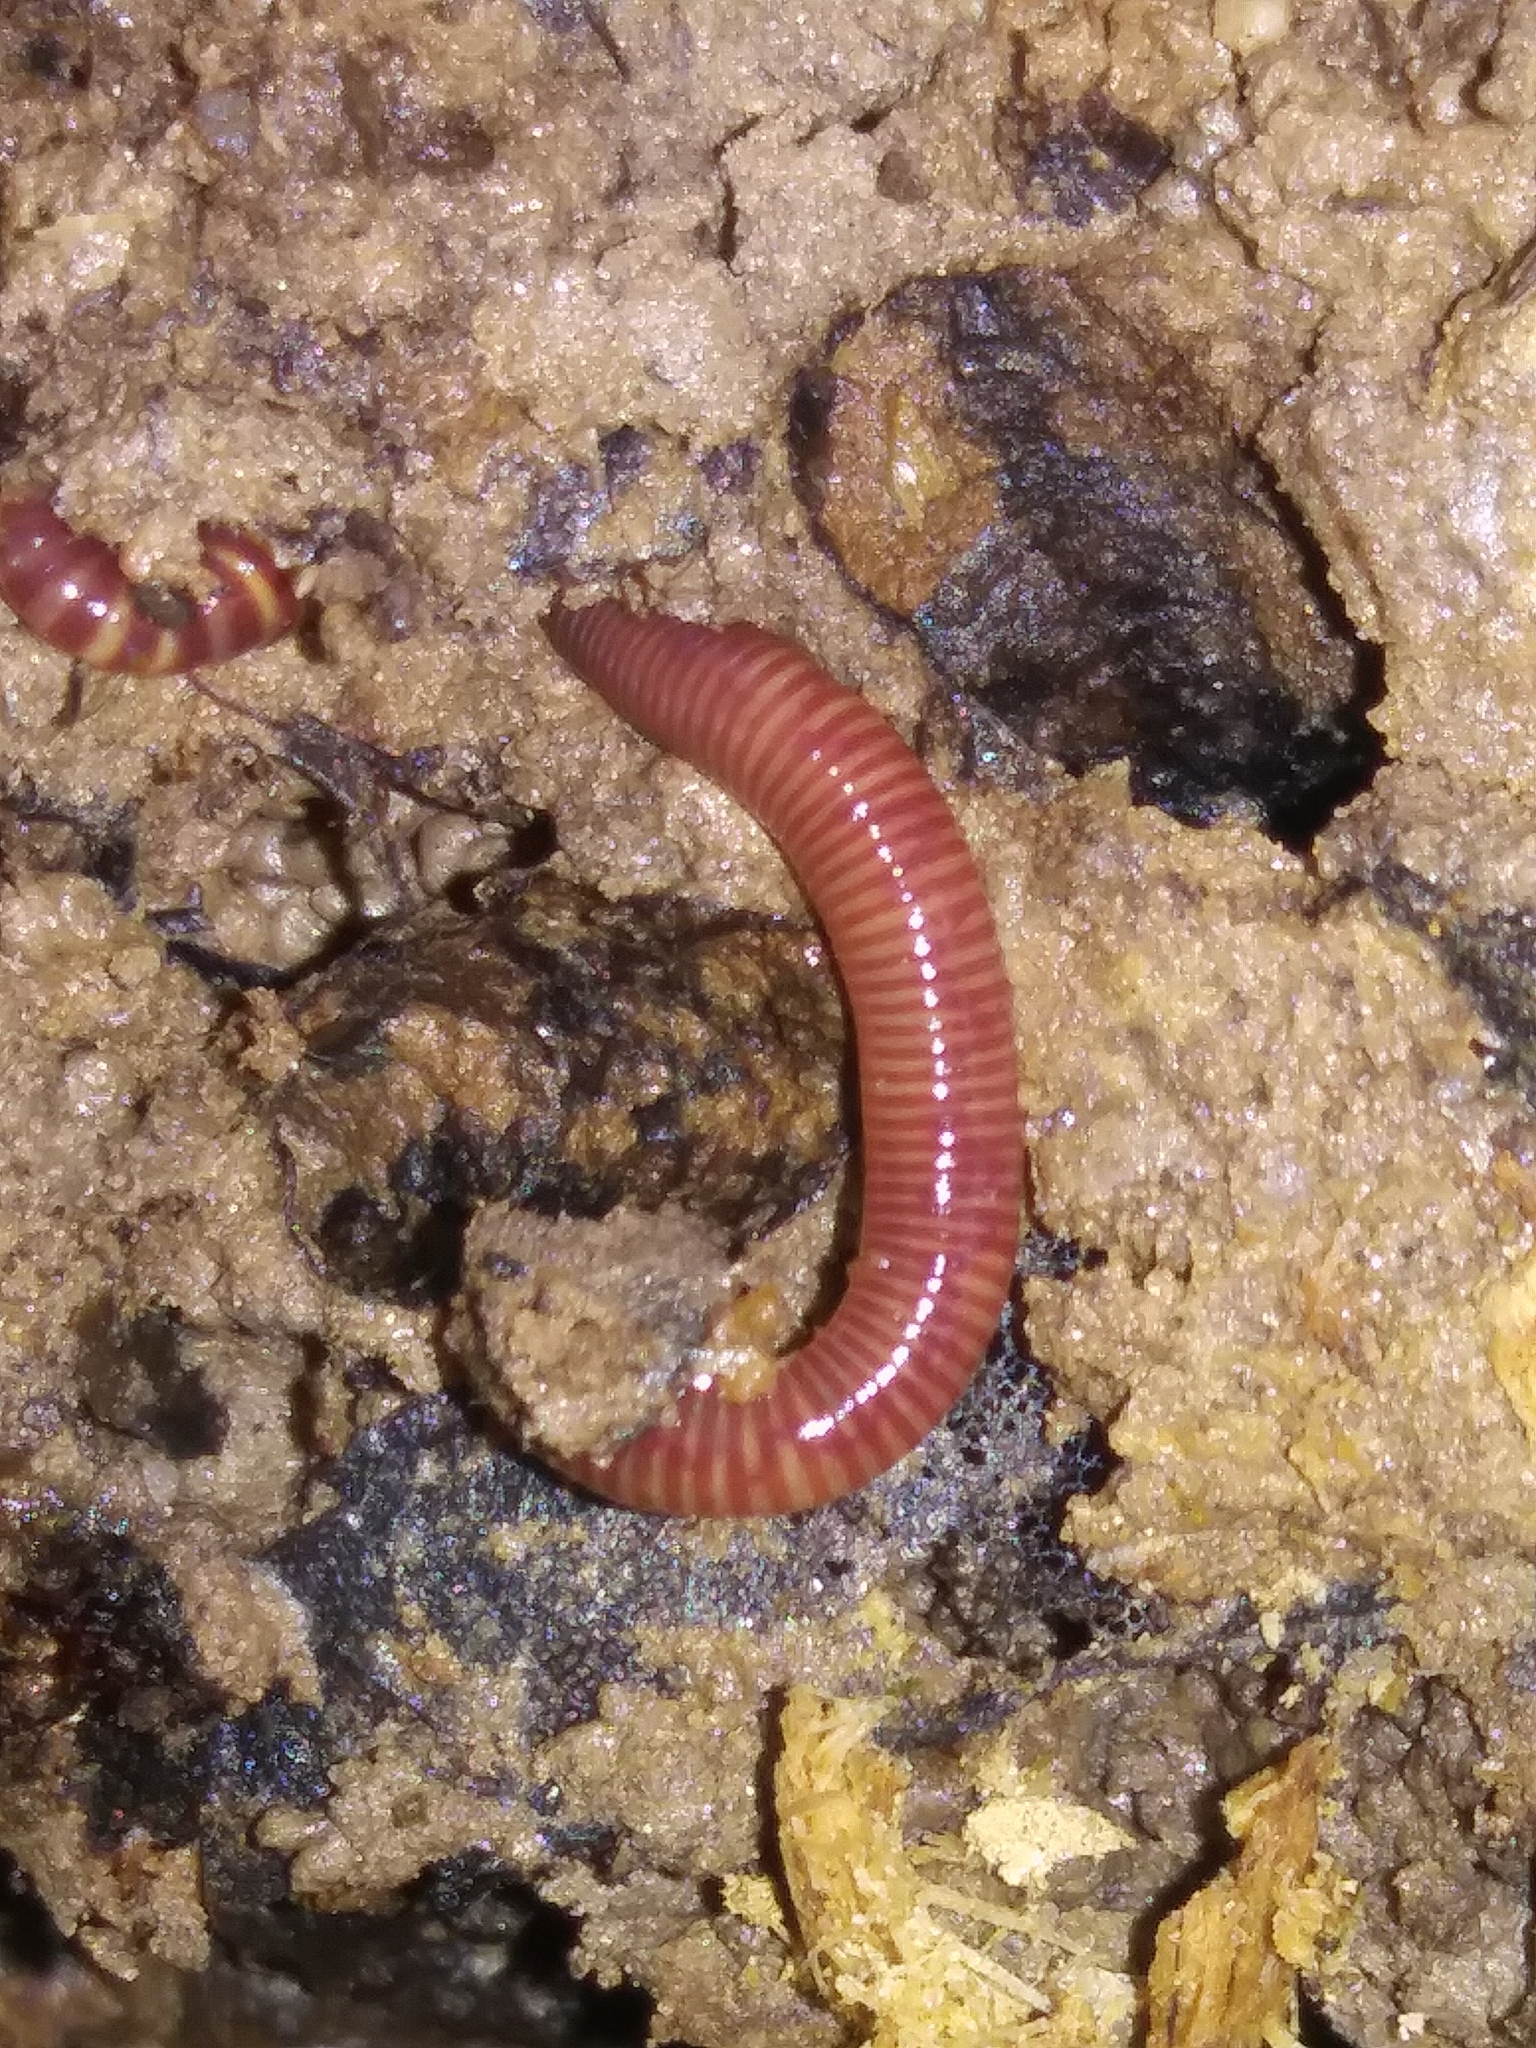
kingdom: Animalia
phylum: Annelida
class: Clitellata
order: Crassiclitellata
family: Lumbricidae
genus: Eisenia
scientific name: Eisenia fetida
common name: Red wiggler
